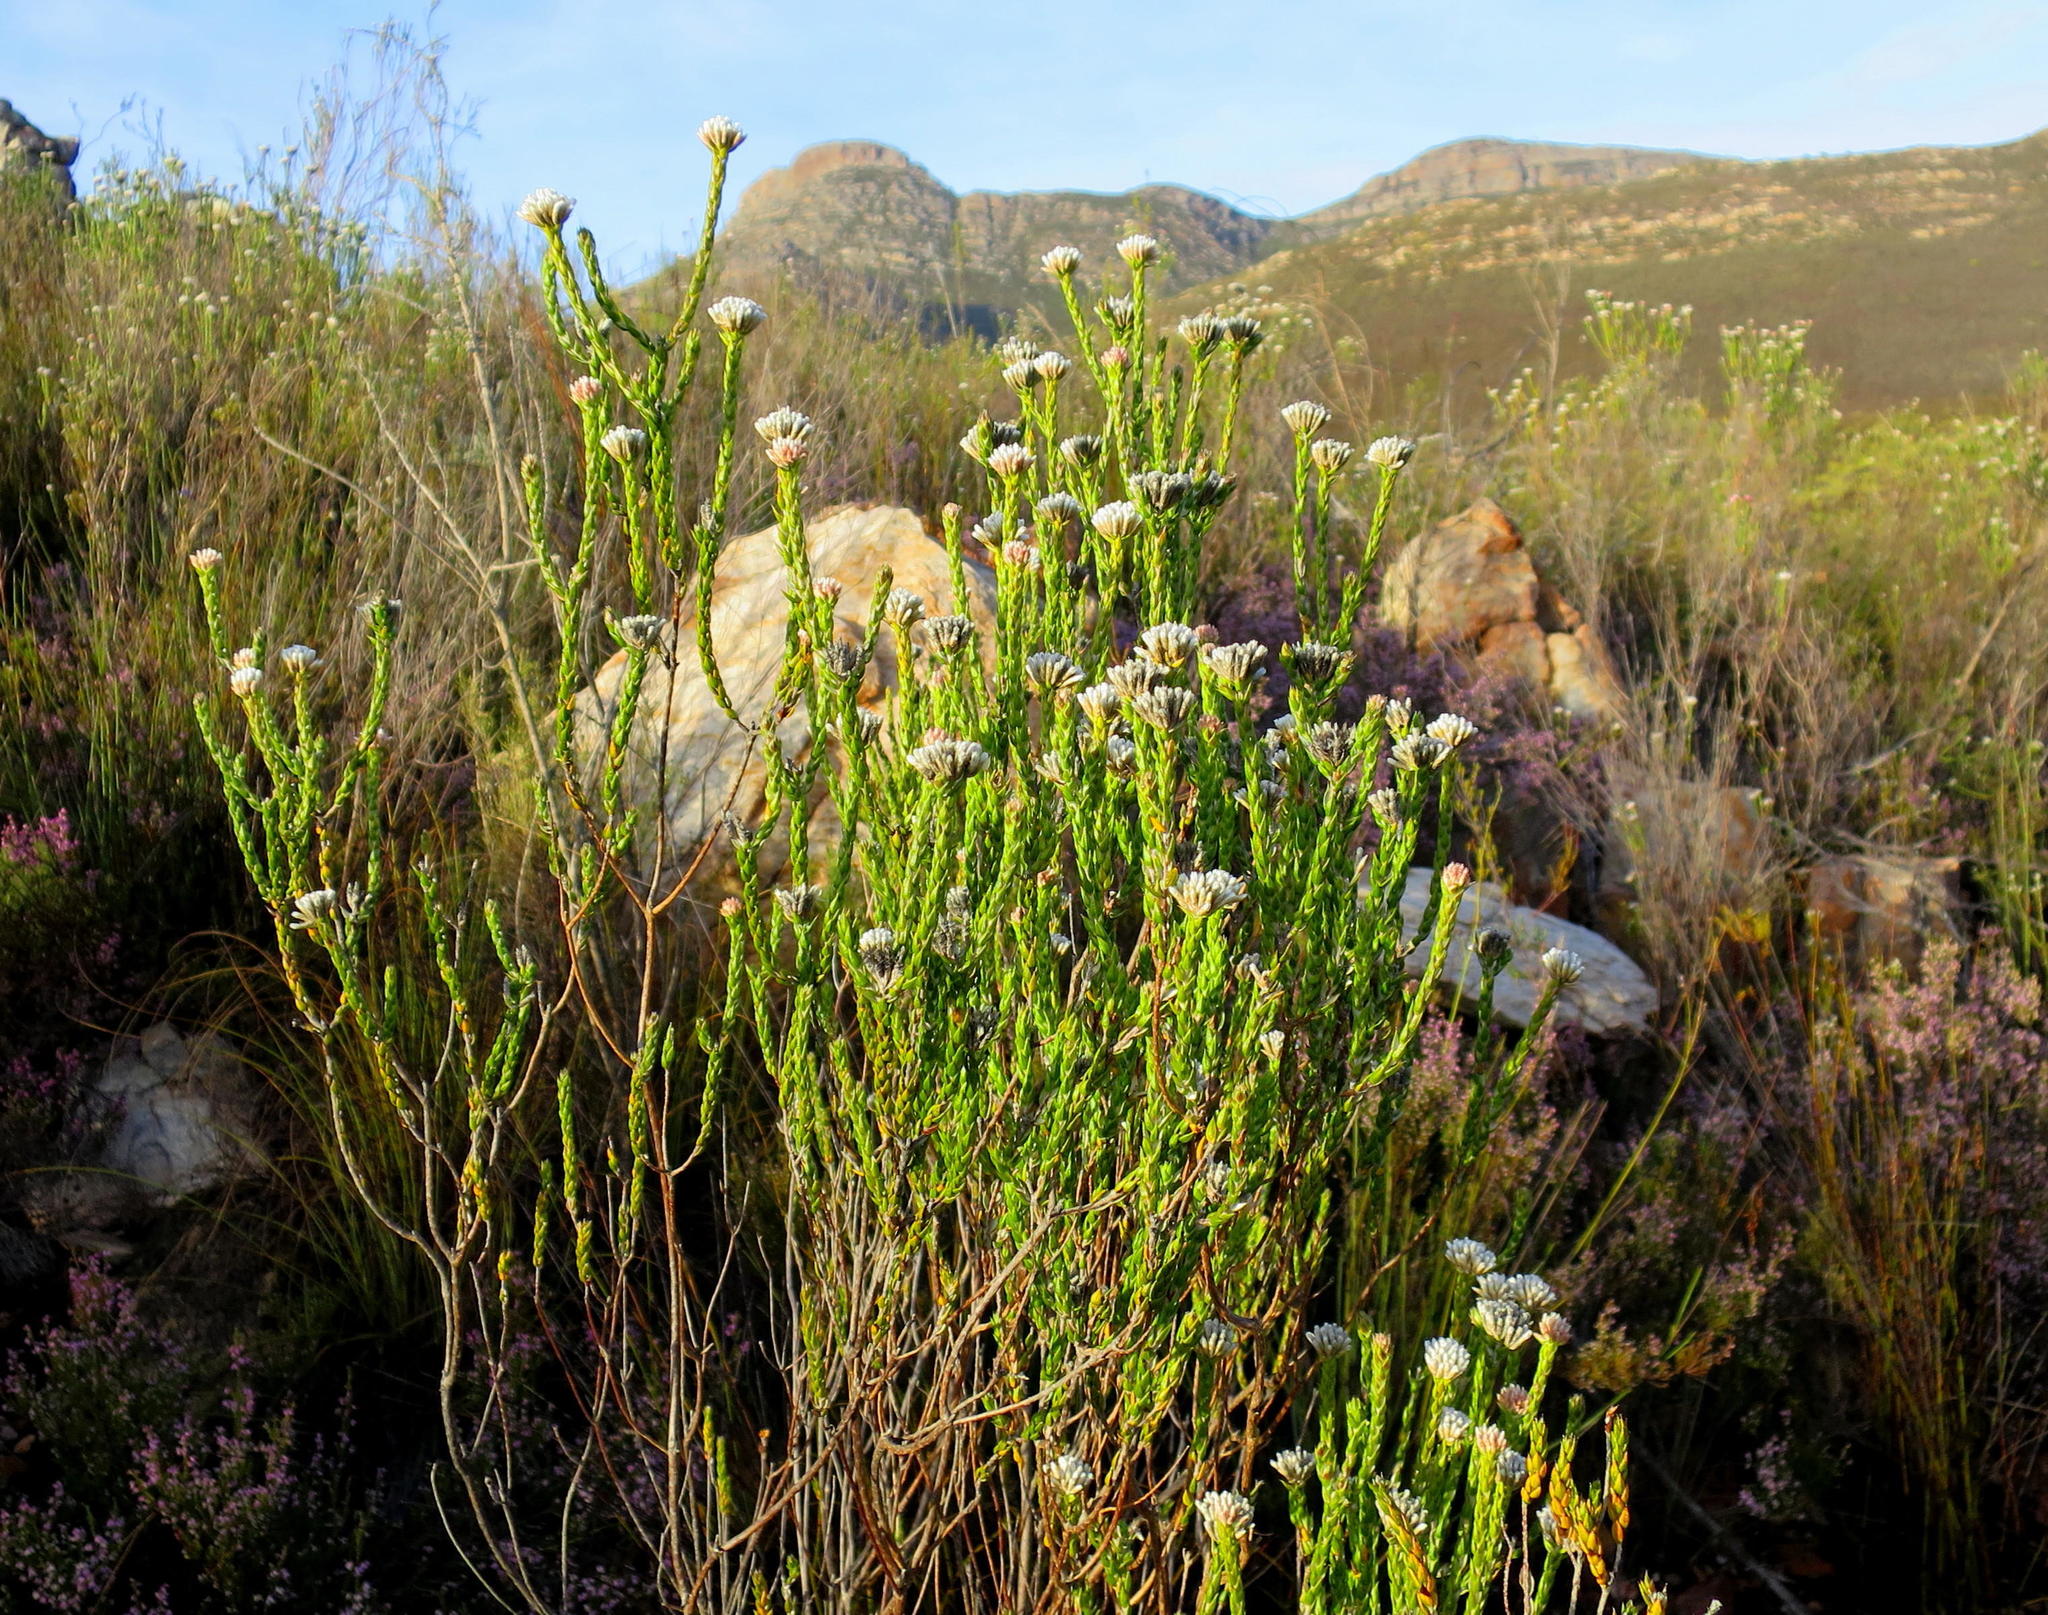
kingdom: Plantae
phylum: Tracheophyta
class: Magnoliopsida
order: Asterales
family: Asteraceae
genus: Metalasia
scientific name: Metalasia pulcherrima
